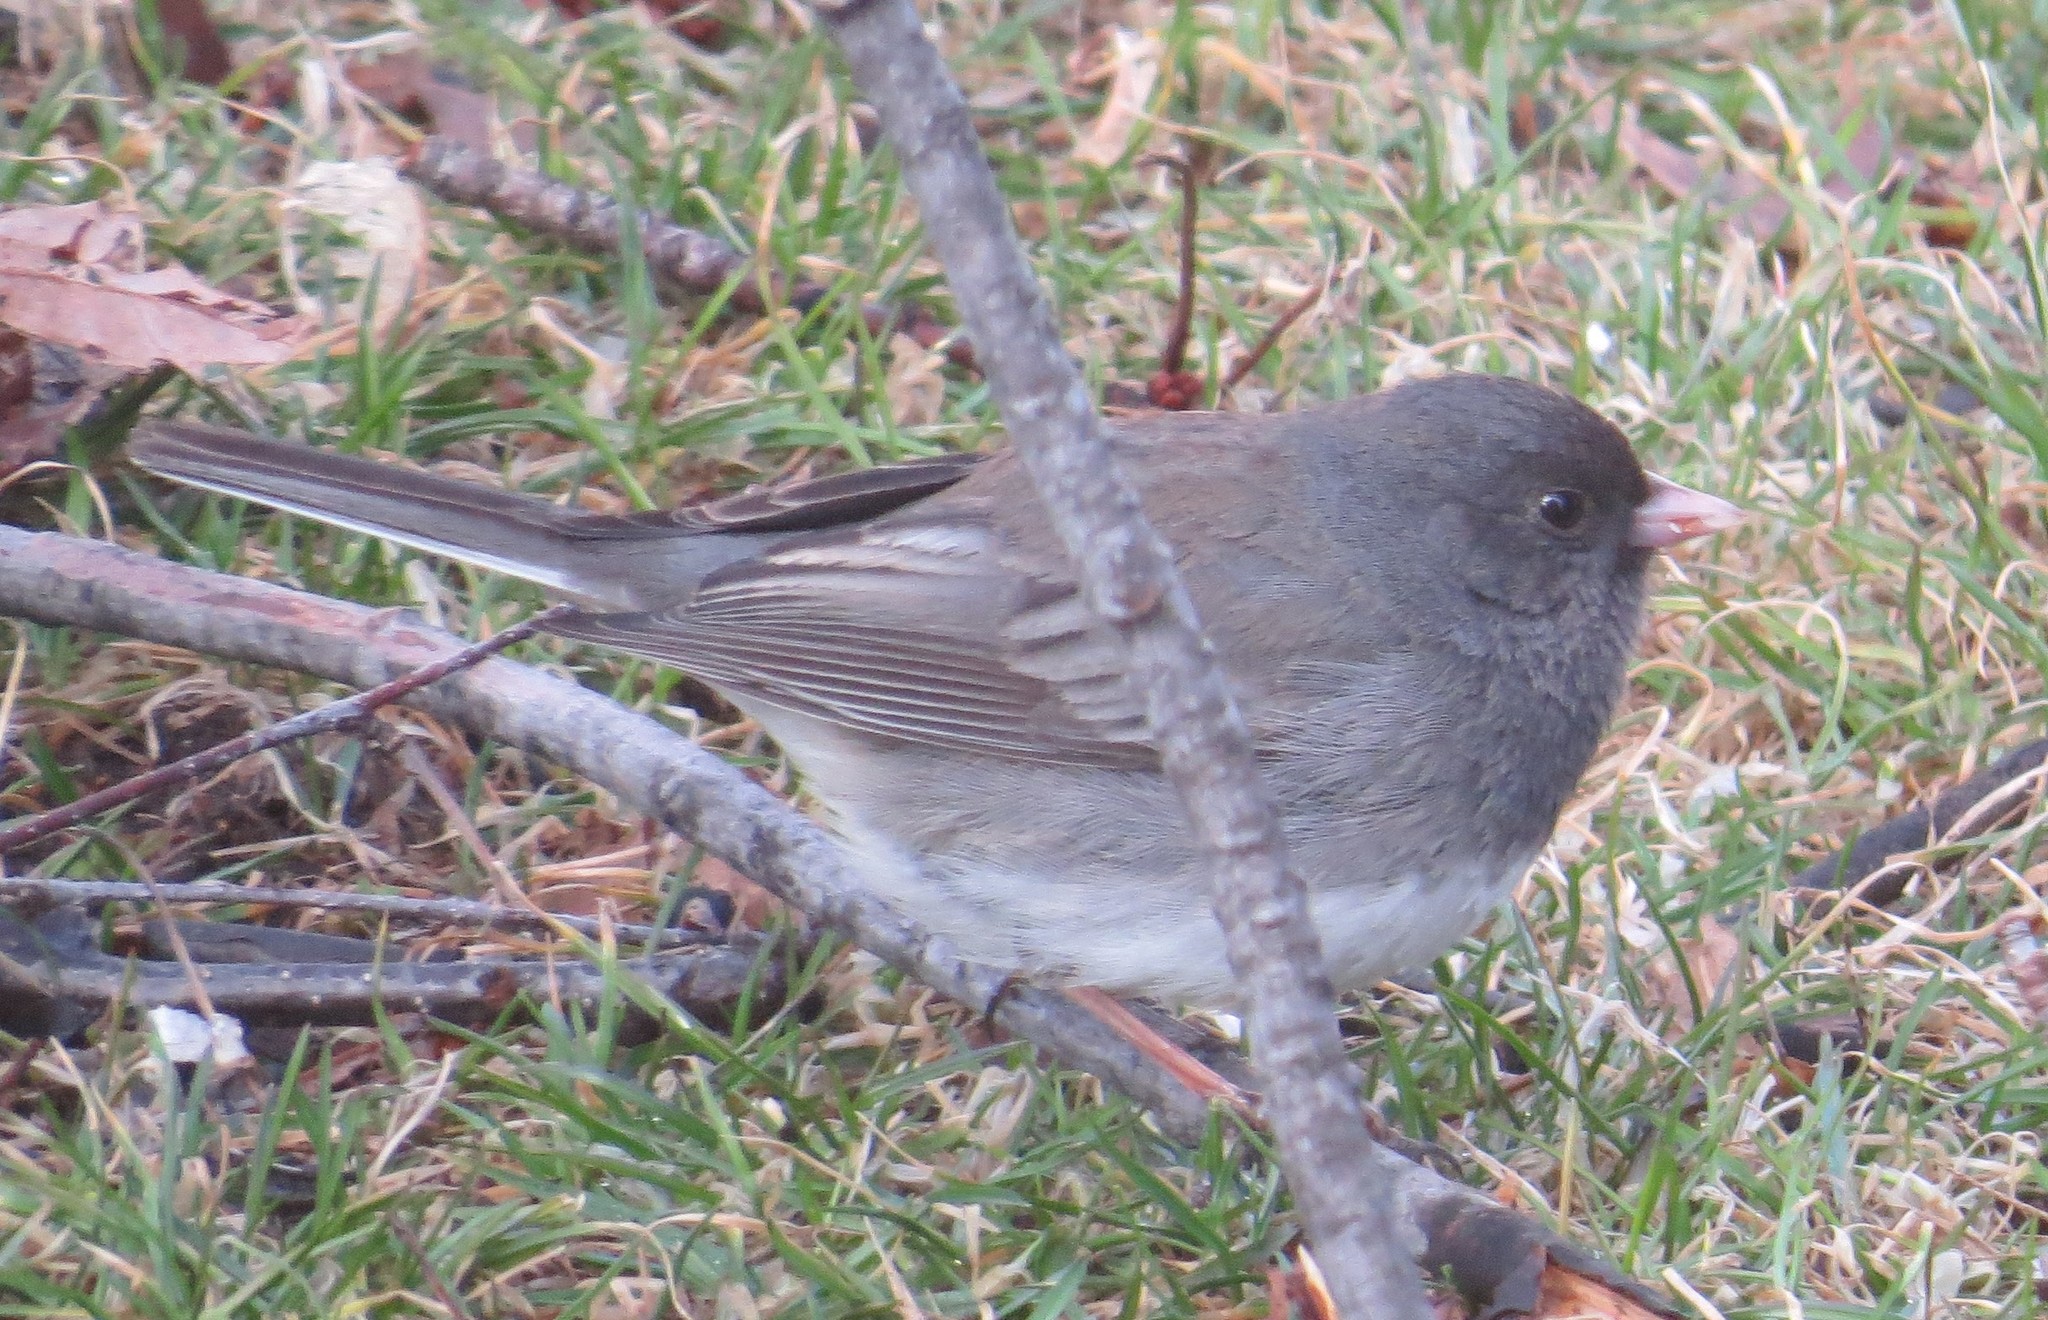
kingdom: Animalia
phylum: Chordata
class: Aves
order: Passeriformes
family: Passerellidae
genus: Junco
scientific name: Junco hyemalis
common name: Dark-eyed junco
